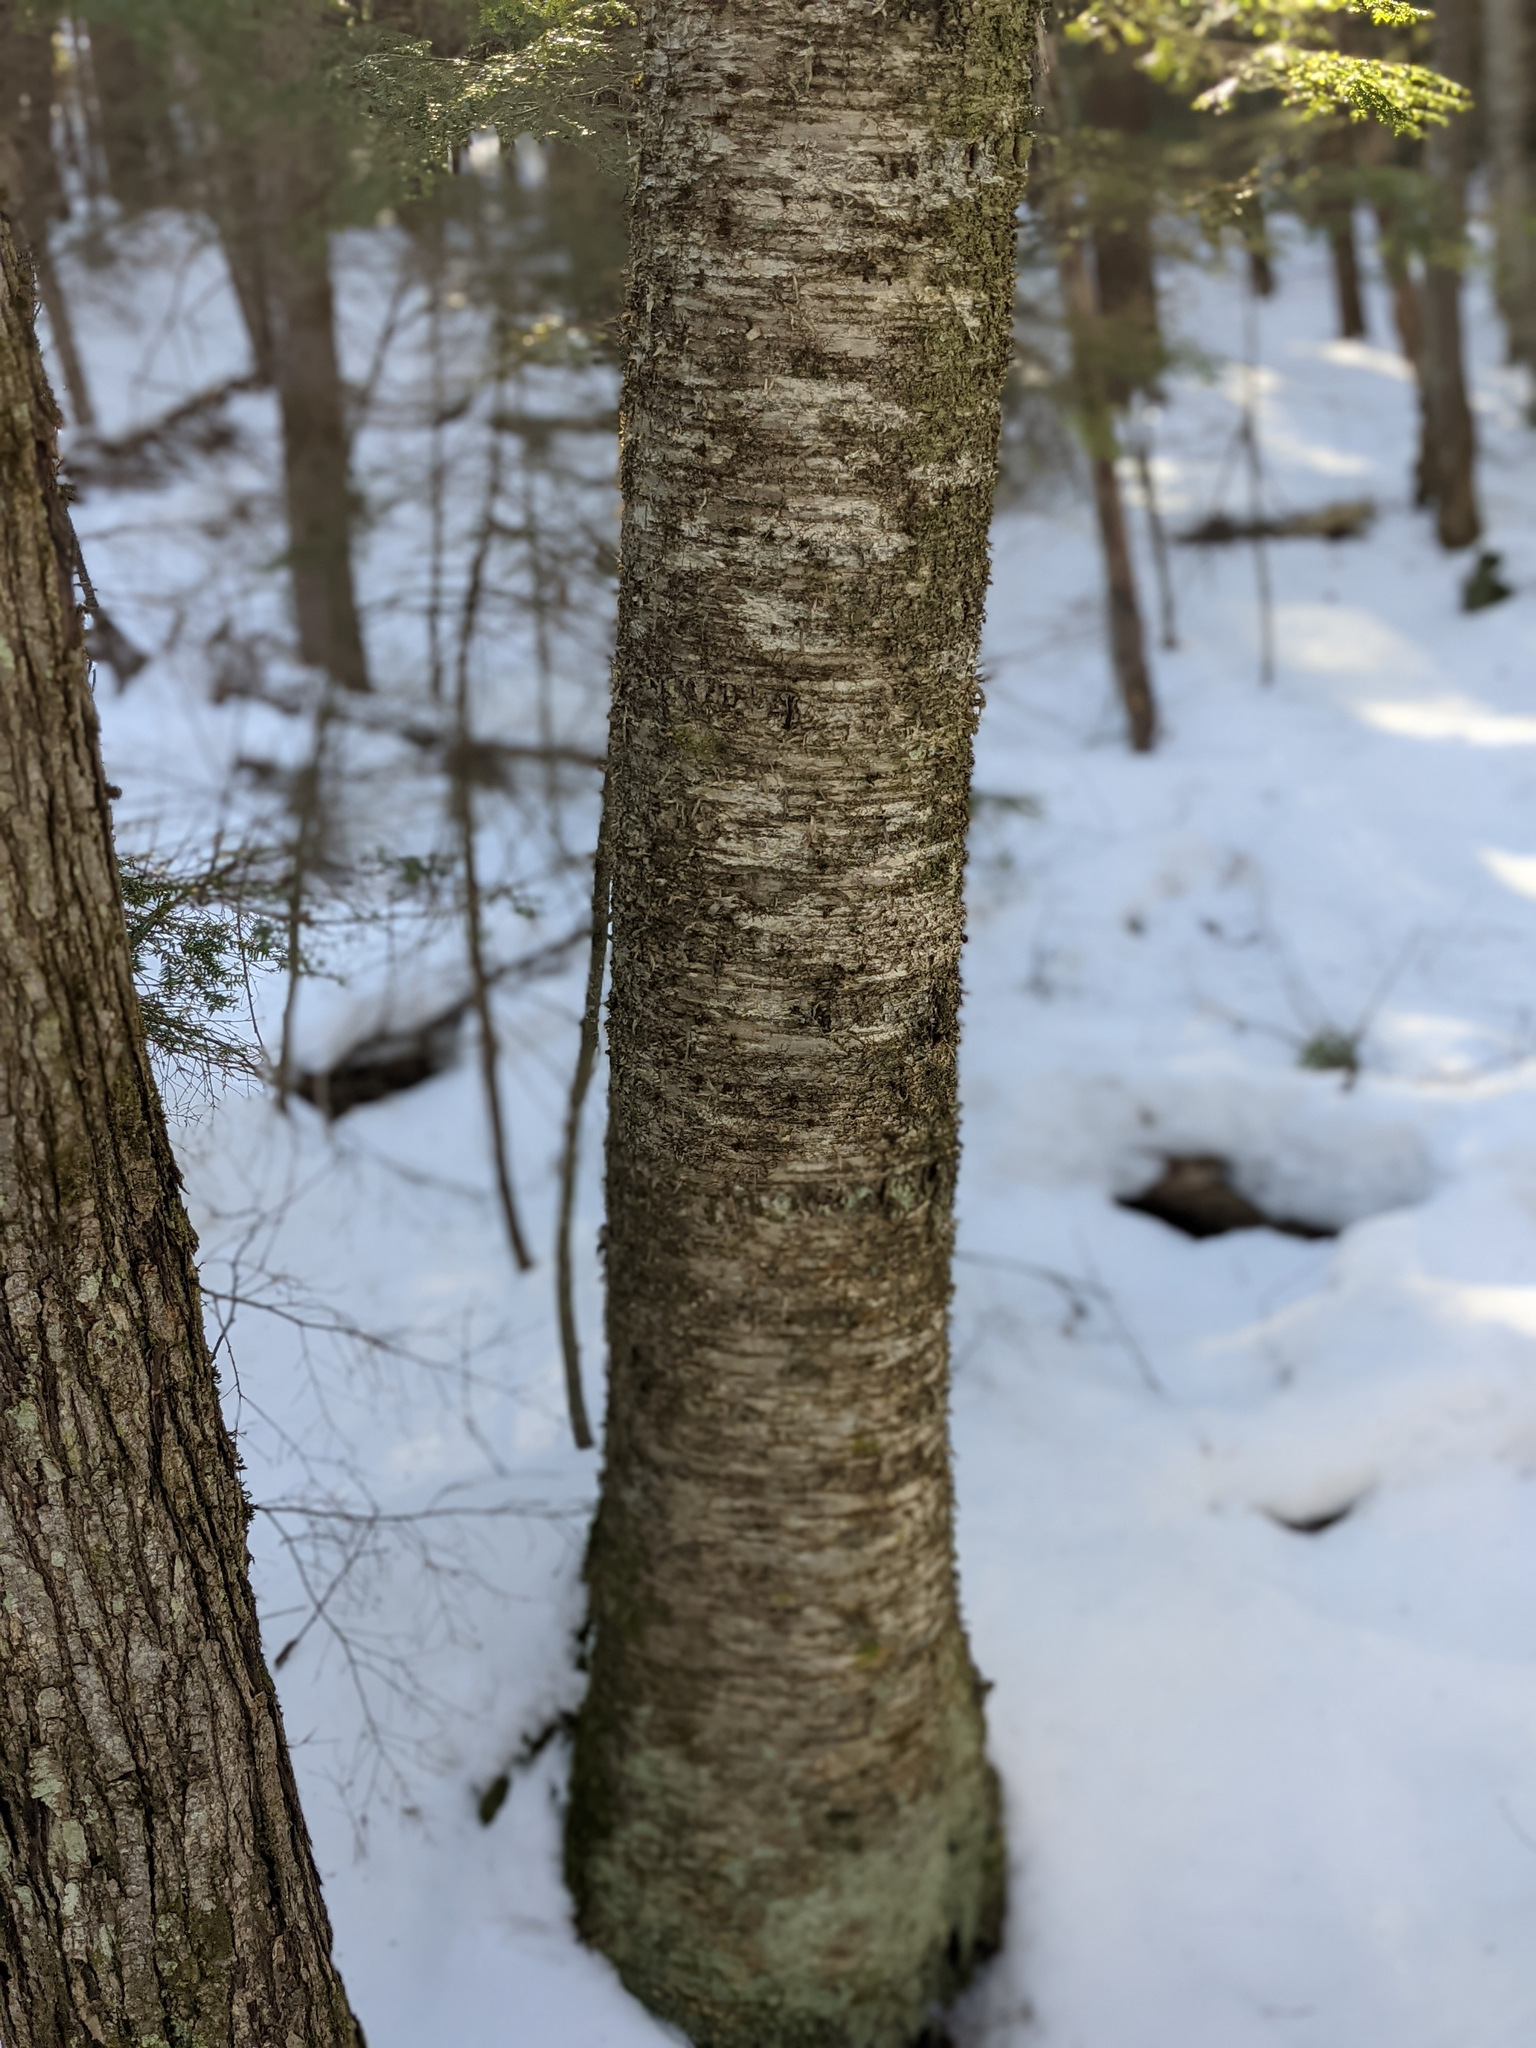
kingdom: Plantae
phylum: Tracheophyta
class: Magnoliopsida
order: Fagales
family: Betulaceae
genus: Betula
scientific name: Betula alleghaniensis
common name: Yellow birch
